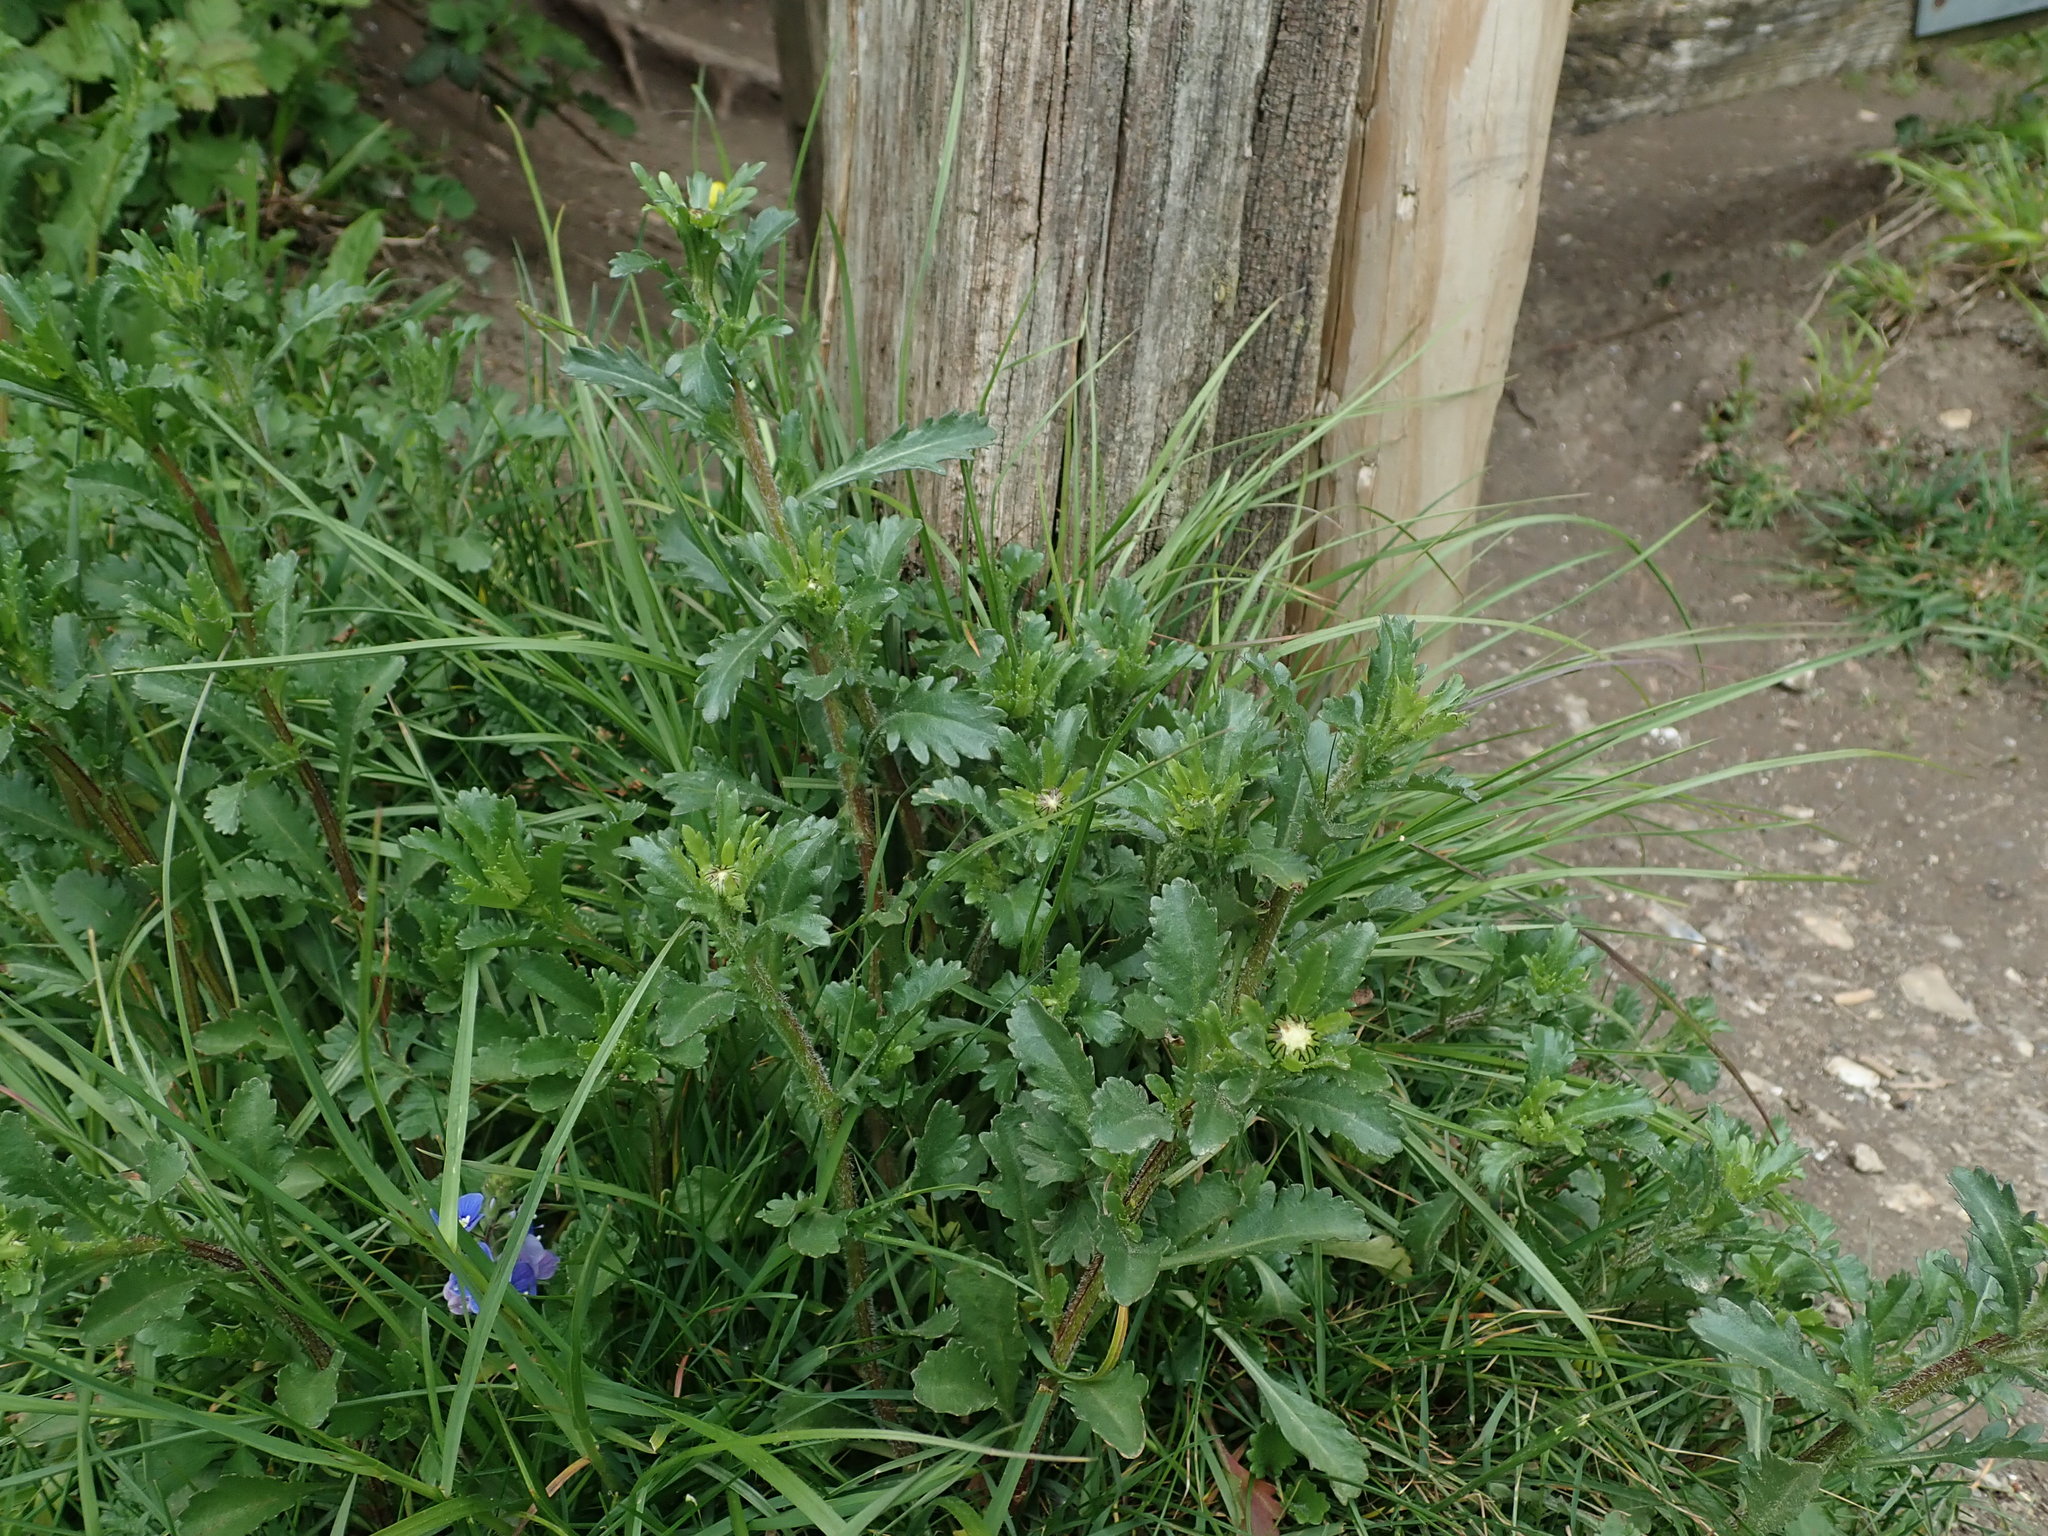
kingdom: Plantae
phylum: Tracheophyta
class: Magnoliopsida
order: Asterales
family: Asteraceae
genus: Leucanthemum
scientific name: Leucanthemum vulgare
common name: Oxeye daisy
